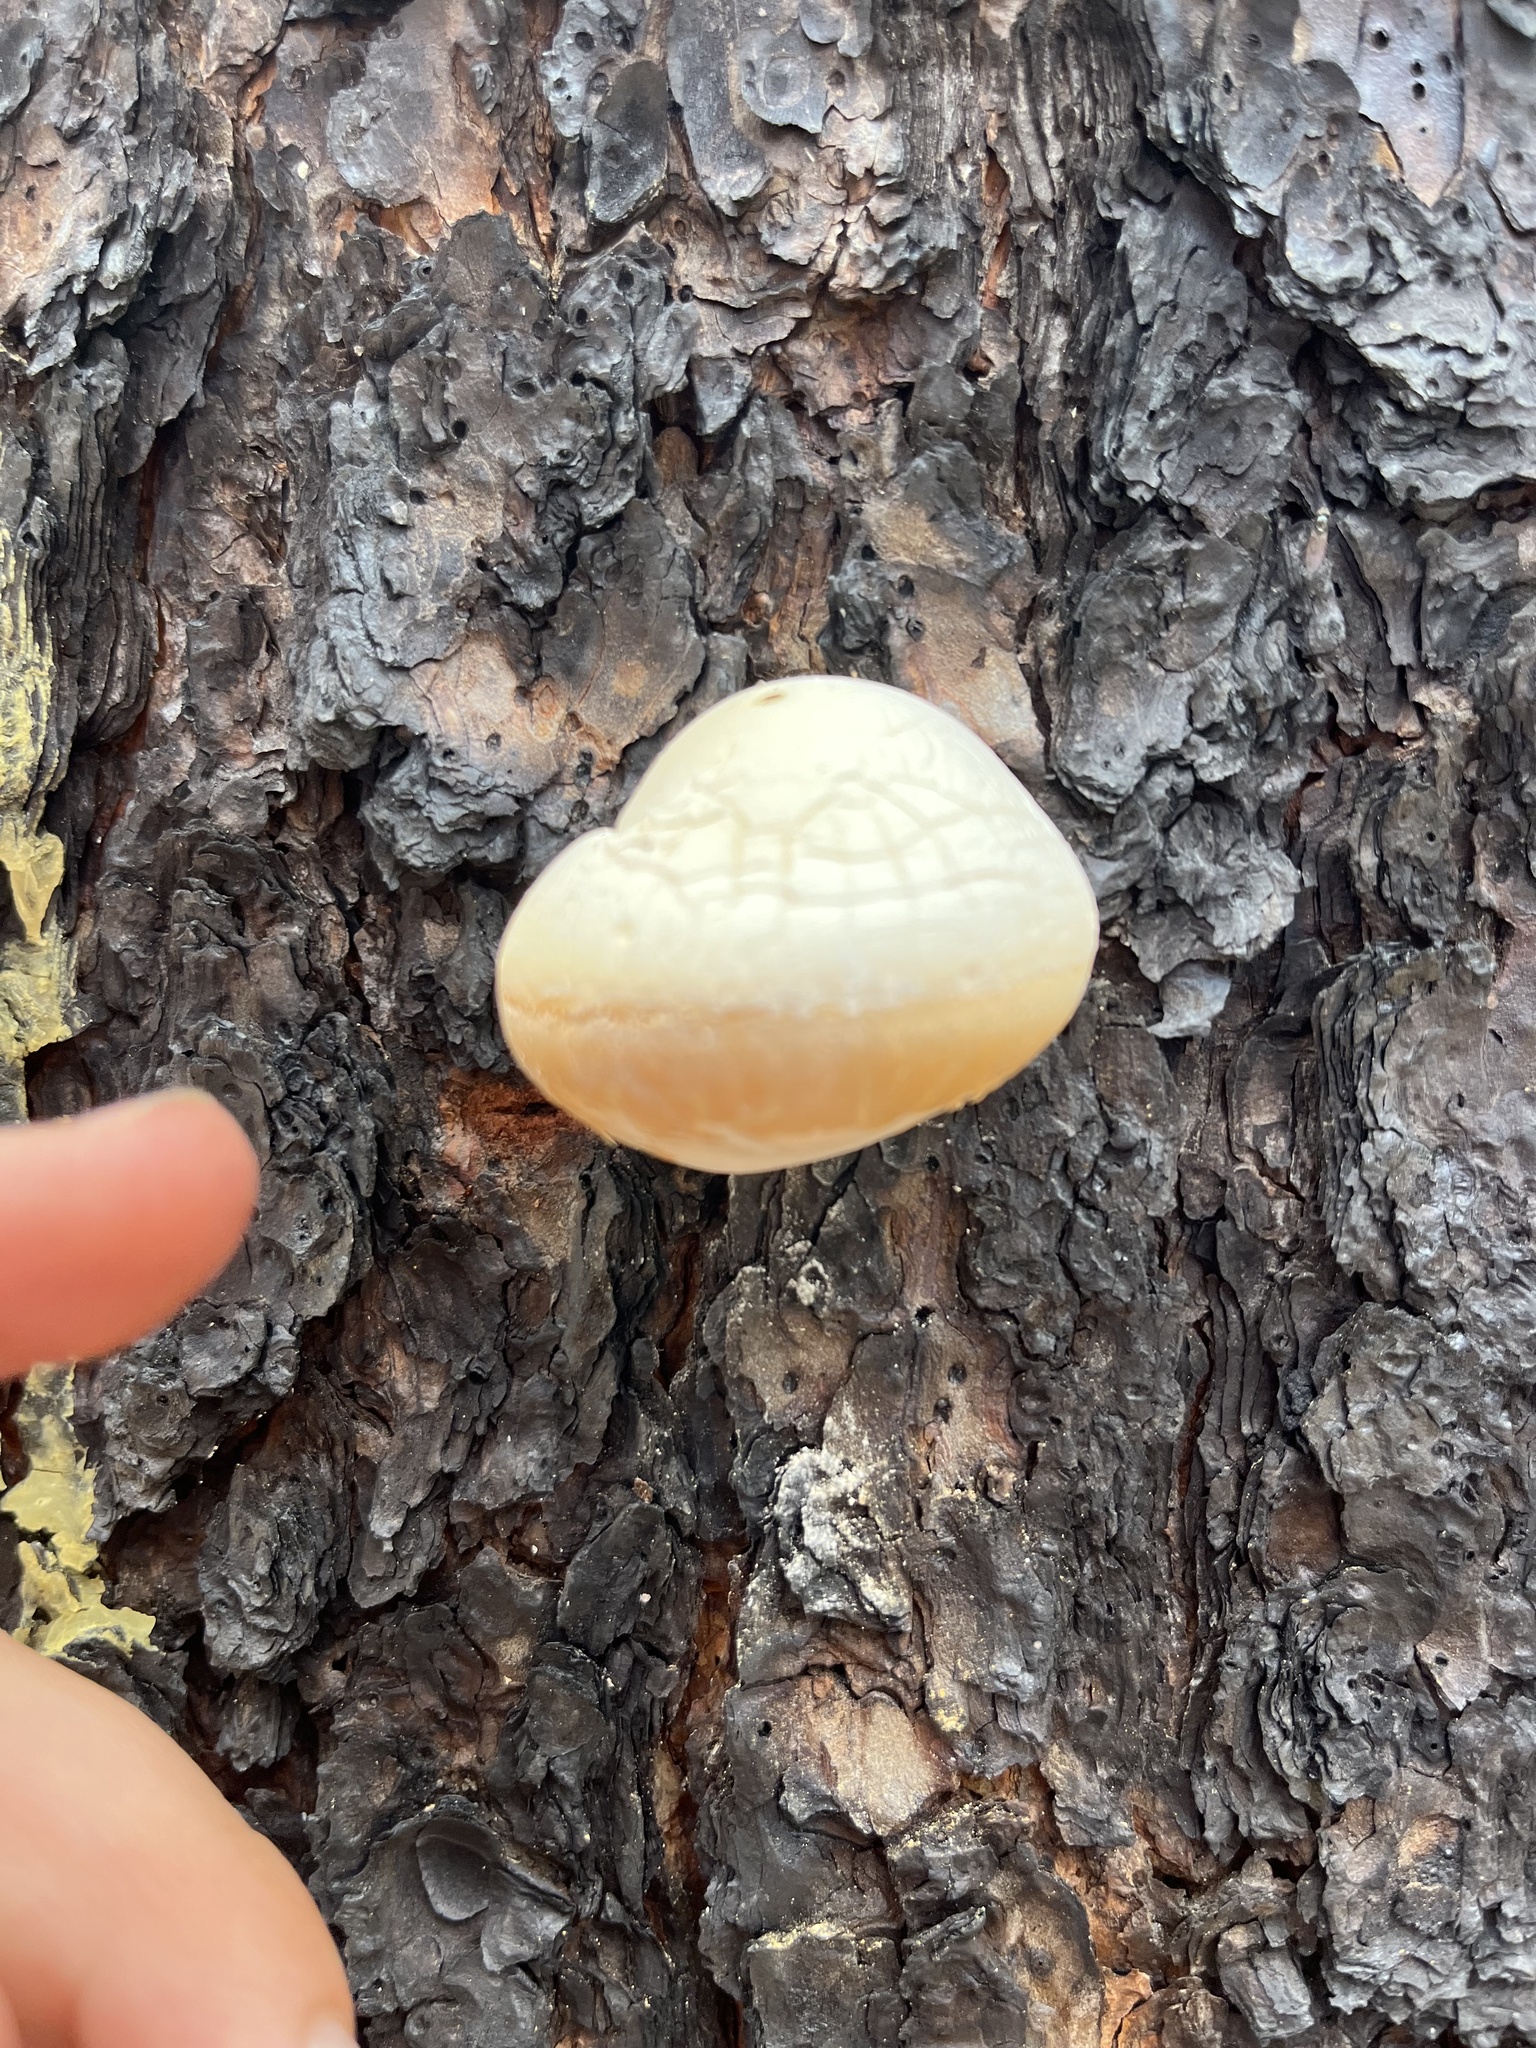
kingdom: Fungi
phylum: Basidiomycota
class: Agaricomycetes
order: Polyporales
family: Polyporaceae
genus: Cryptoporus
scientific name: Cryptoporus volvatus
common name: Veiled polypore
